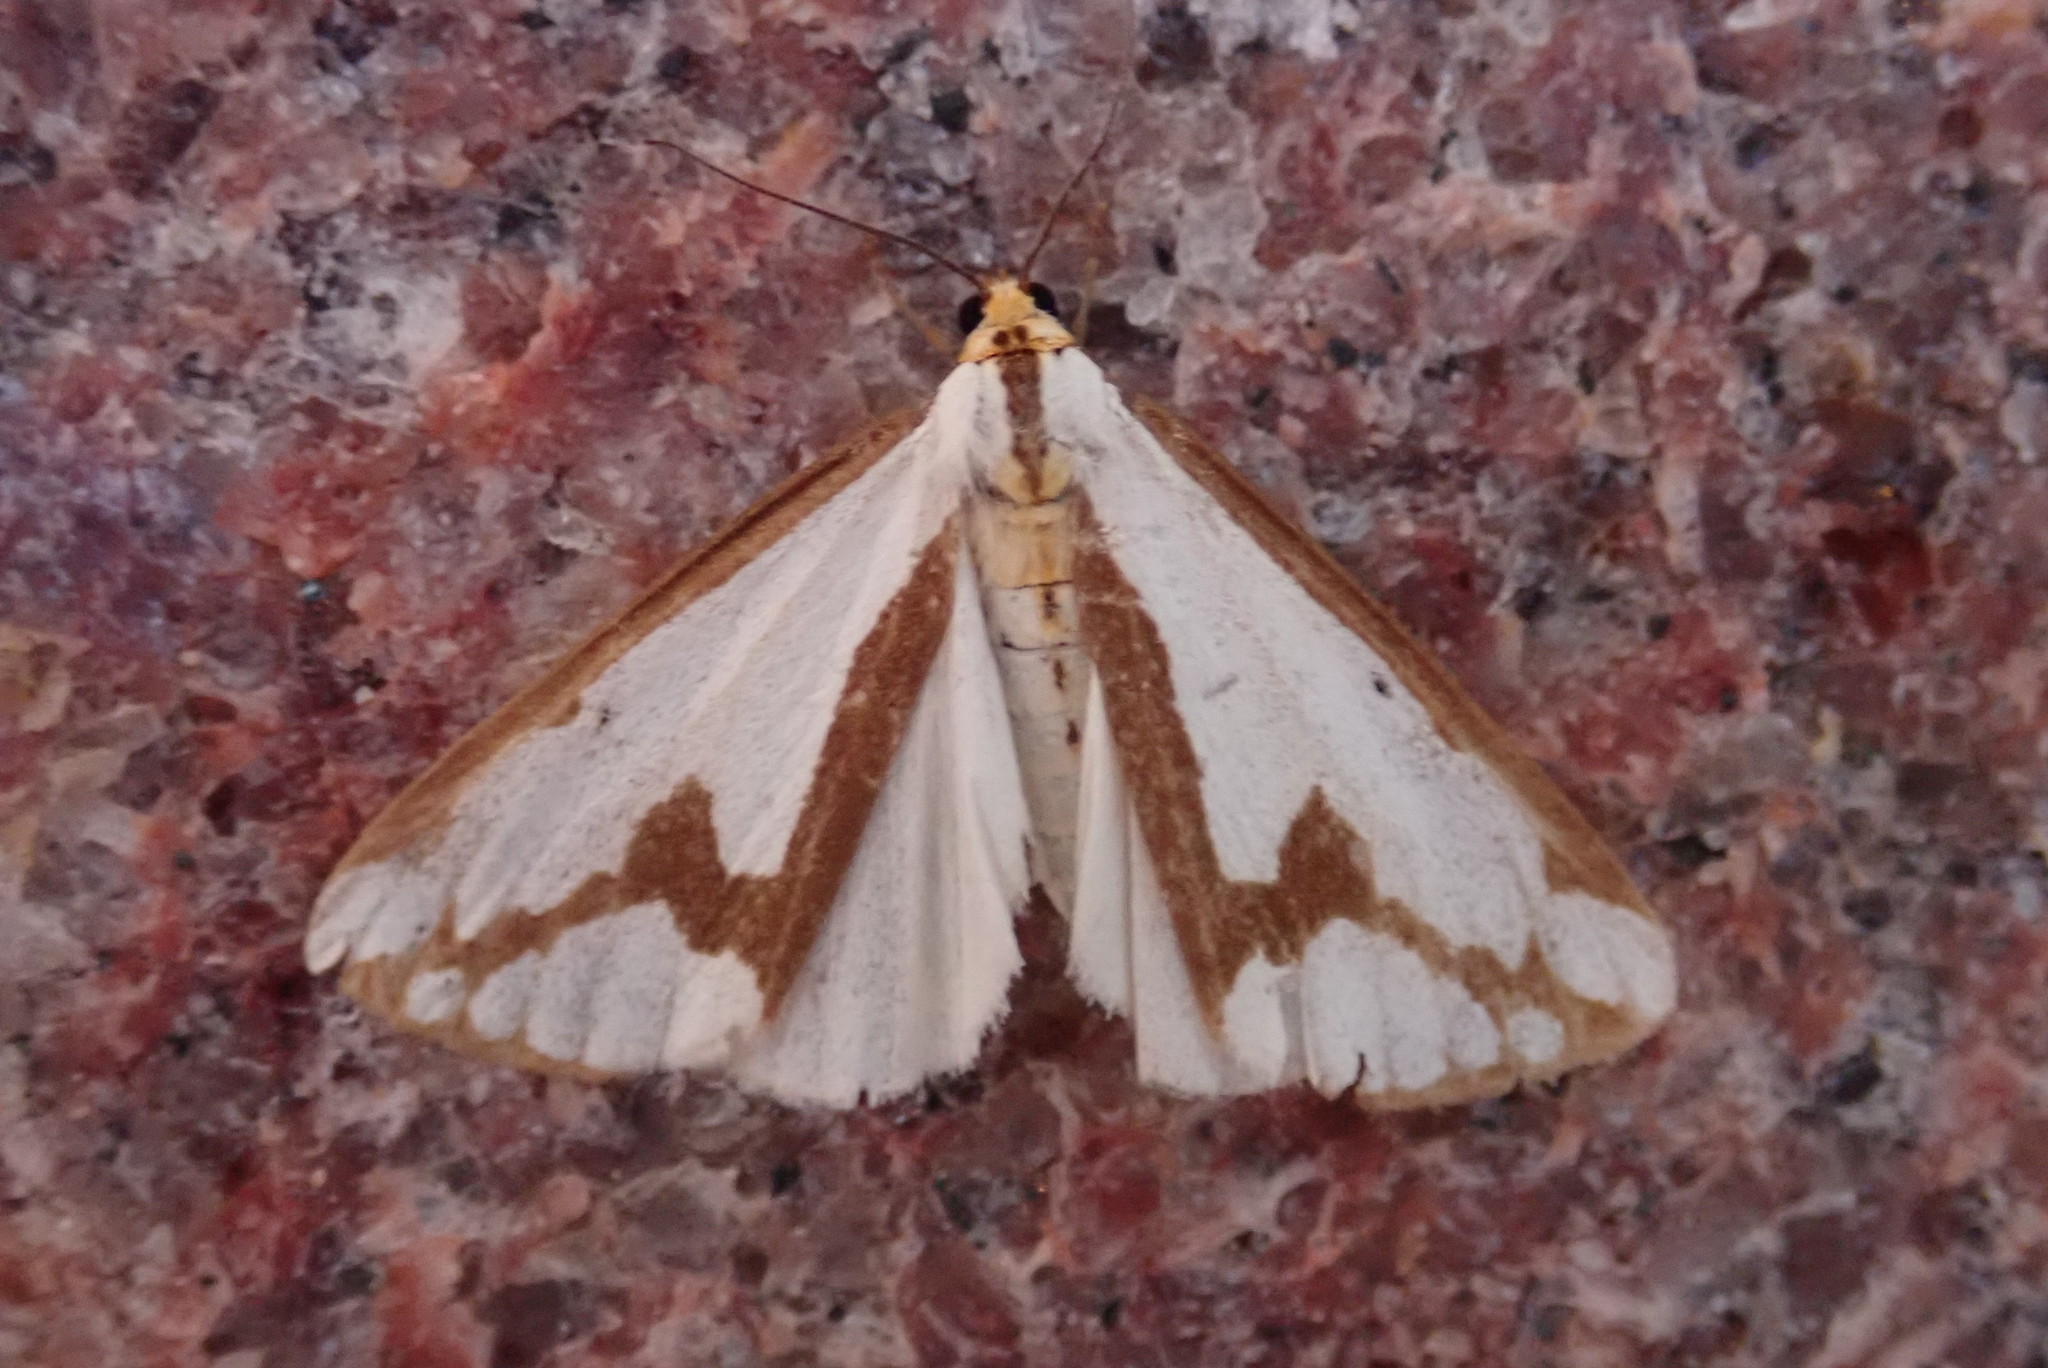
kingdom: Animalia
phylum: Arthropoda
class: Insecta
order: Lepidoptera
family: Erebidae
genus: Haploa
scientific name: Haploa confusa
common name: Confused haploa moth
